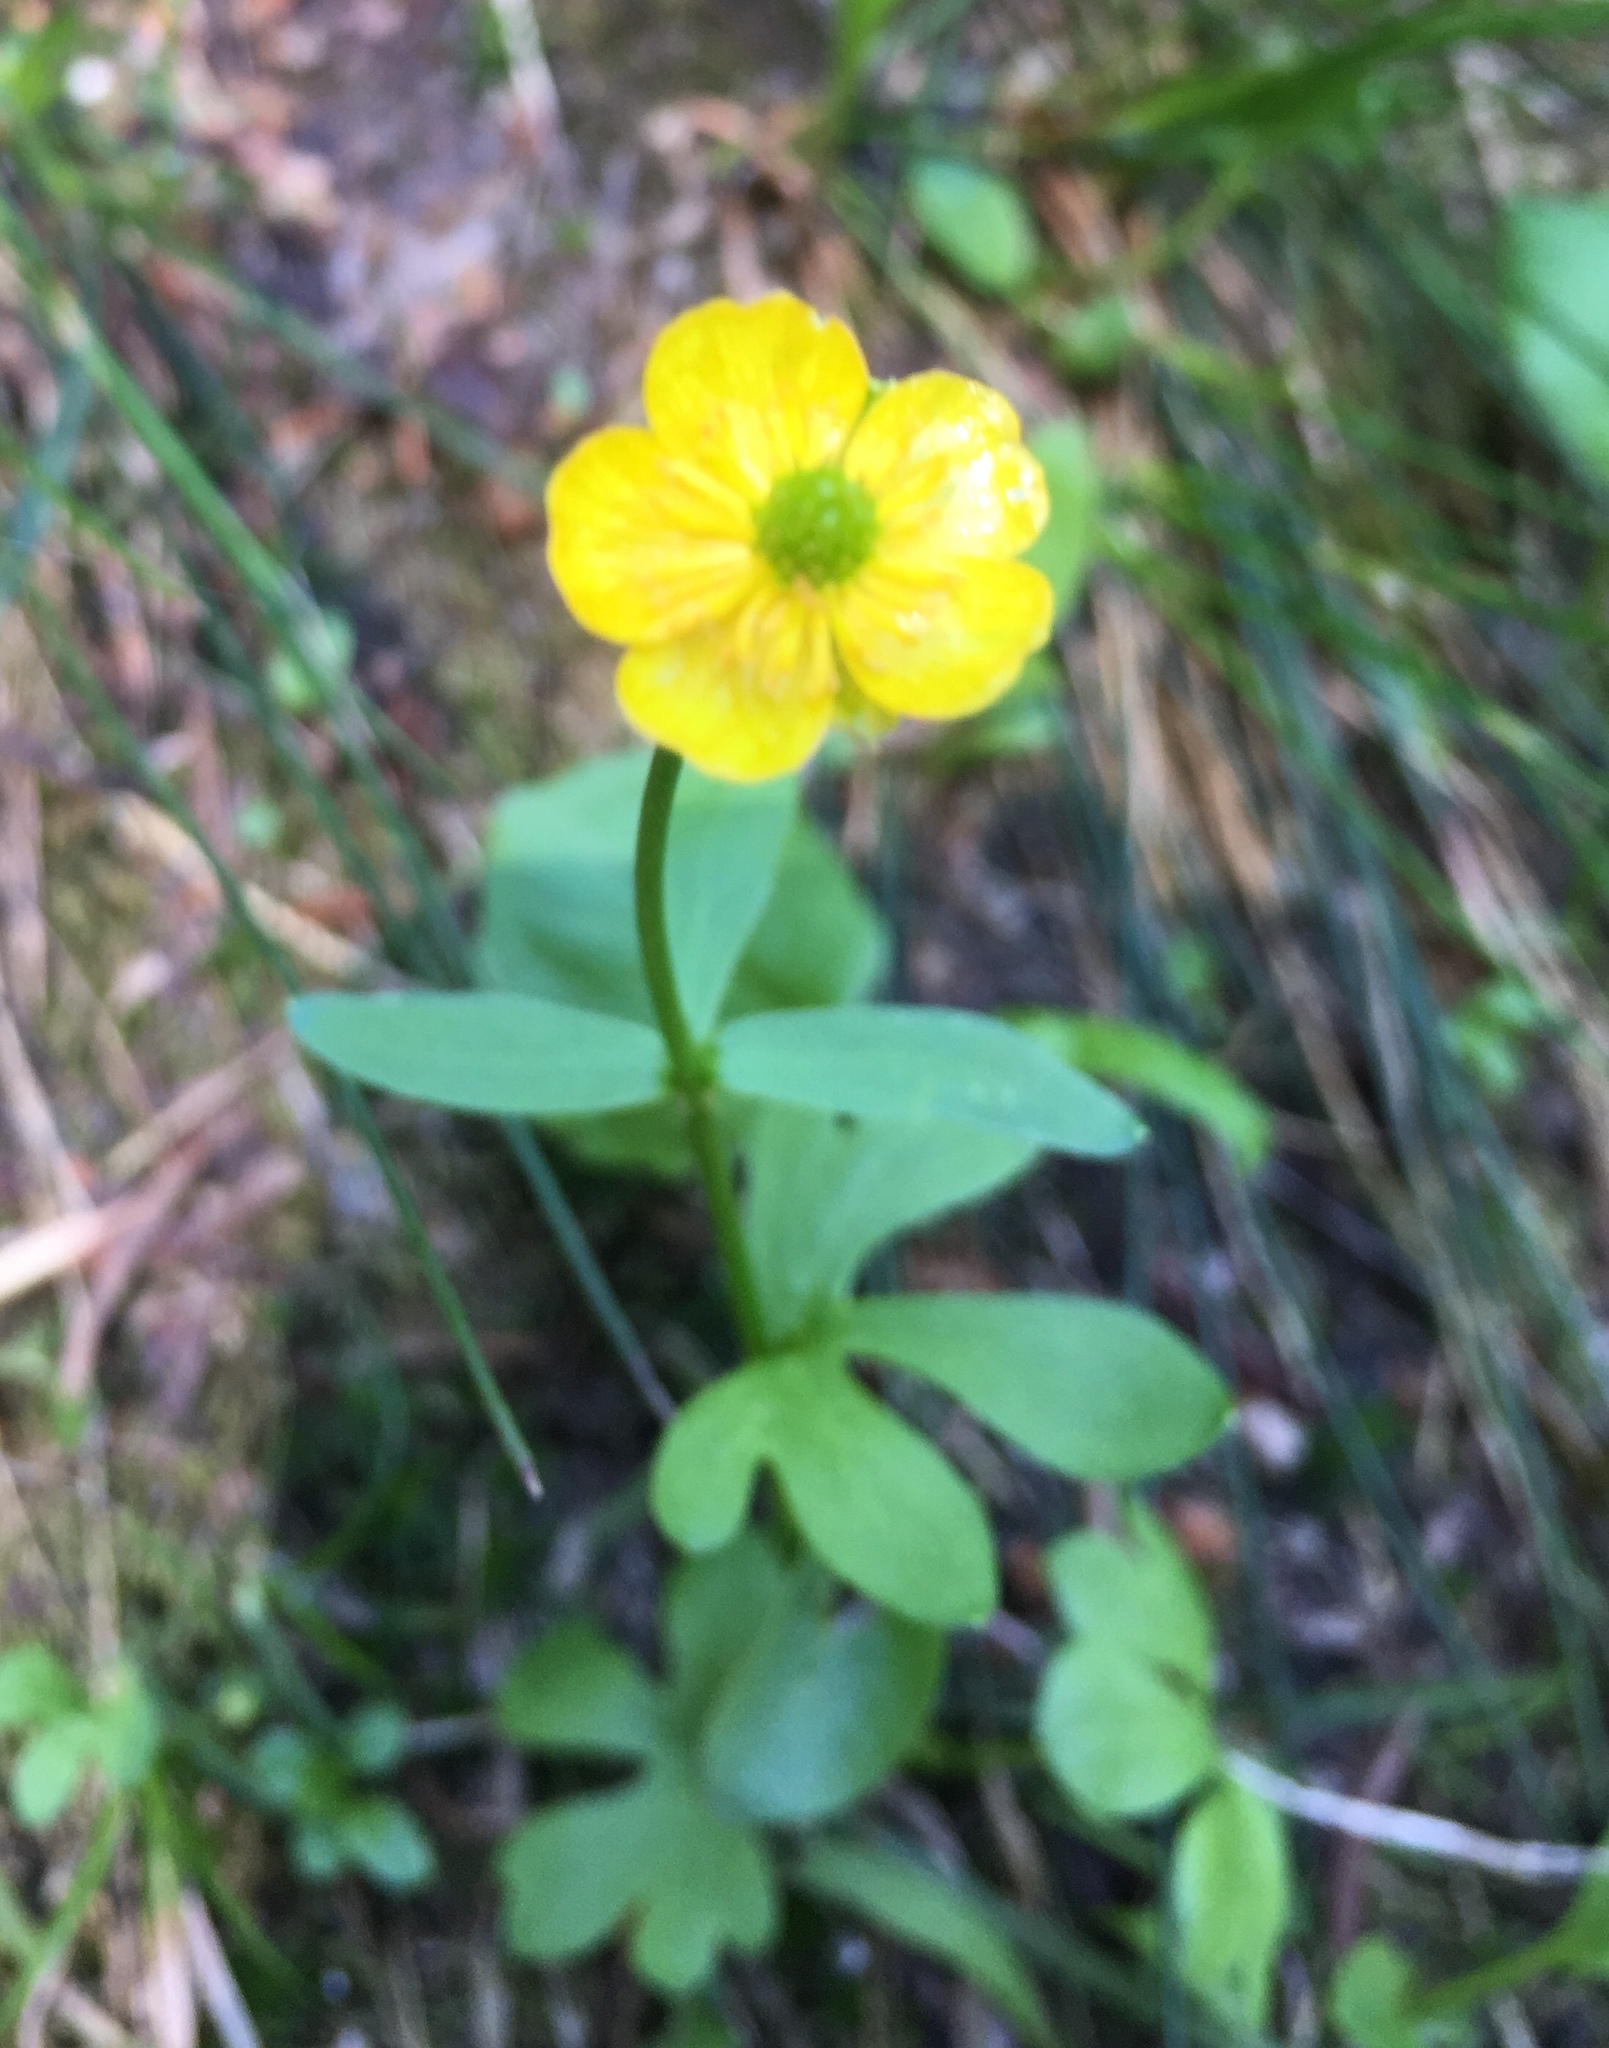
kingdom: Plantae
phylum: Tracheophyta
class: Magnoliopsida
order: Ranunculales
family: Ranunculaceae
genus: Ranunculus
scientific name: Ranunculus glaberrimus
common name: Sagebrush buttercup
